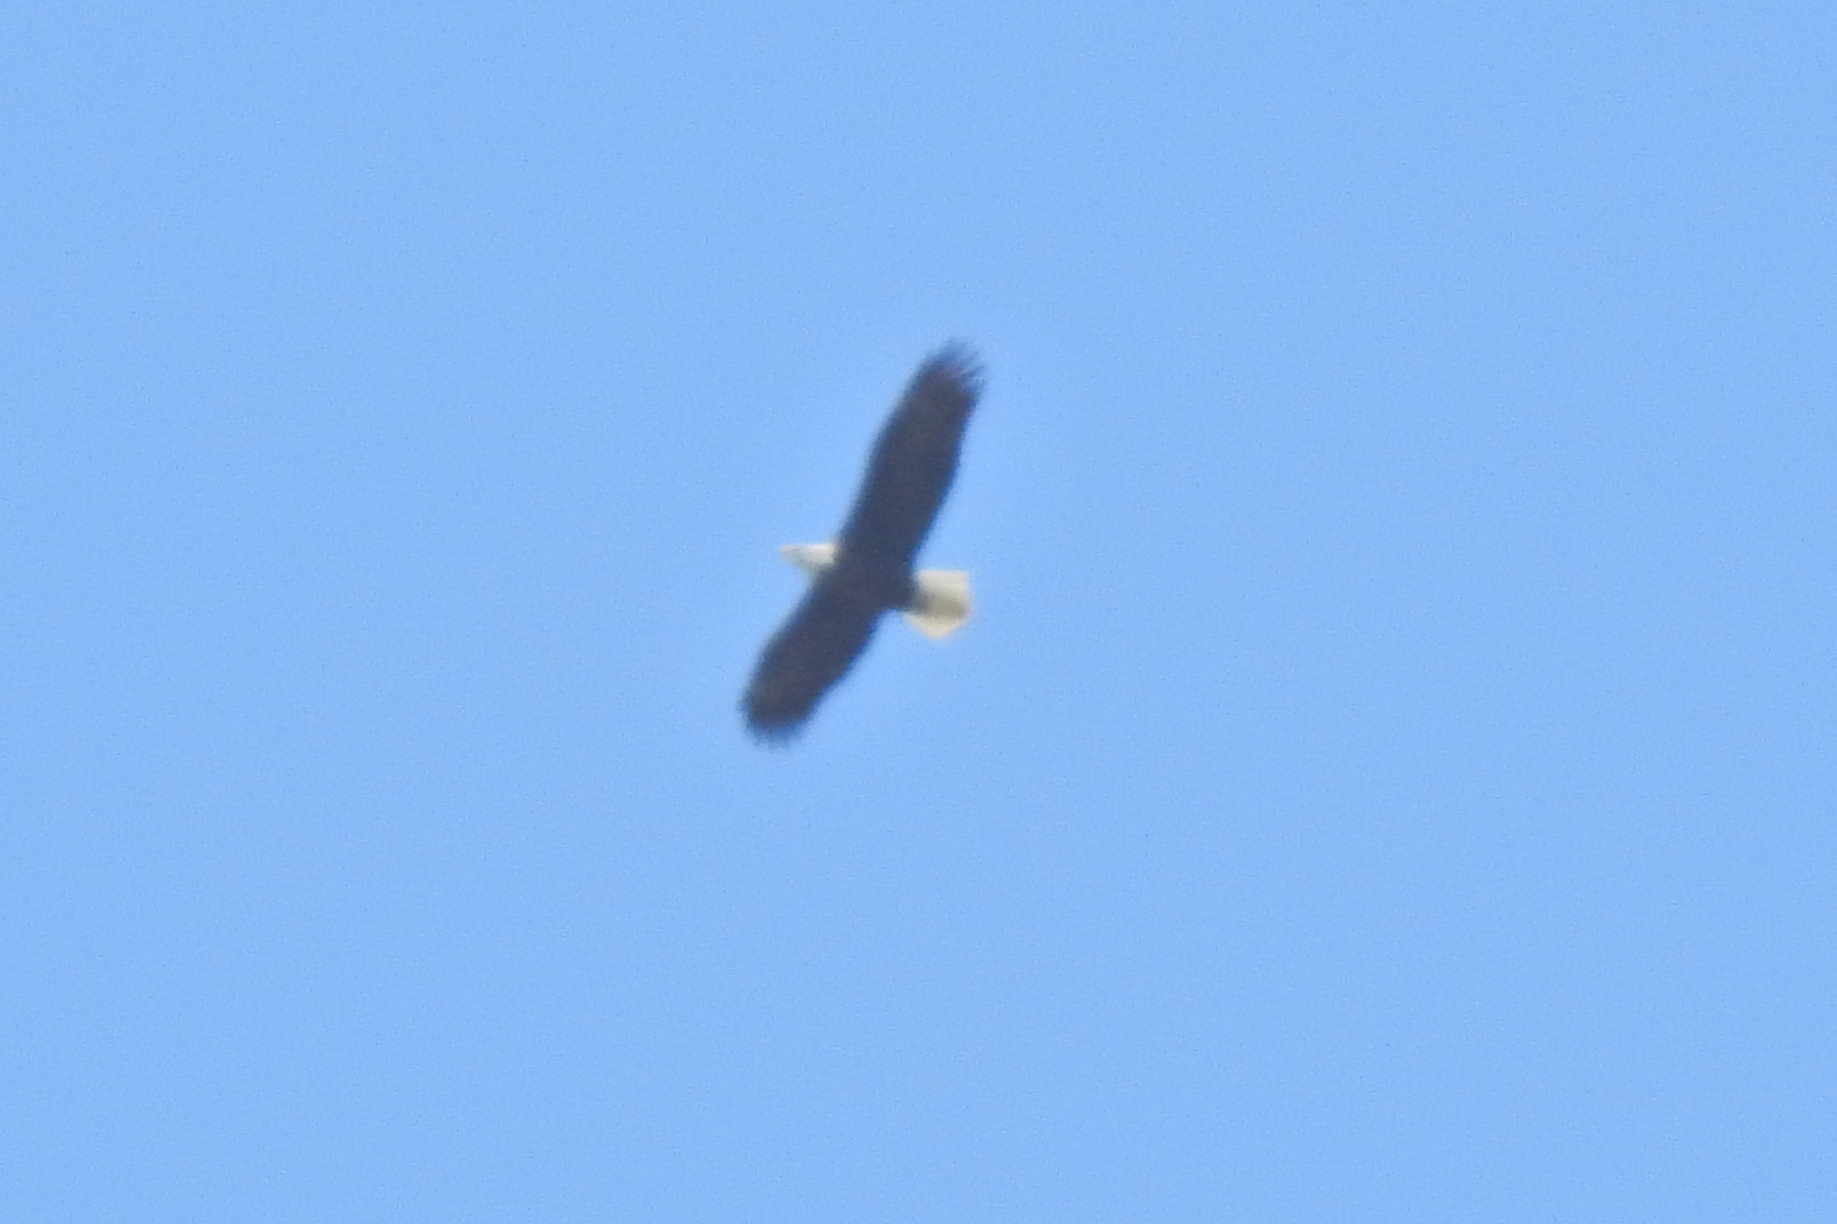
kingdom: Animalia
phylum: Chordata
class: Aves
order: Accipitriformes
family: Accipitridae
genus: Haliaeetus
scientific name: Haliaeetus leucocephalus
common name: Bald eagle
